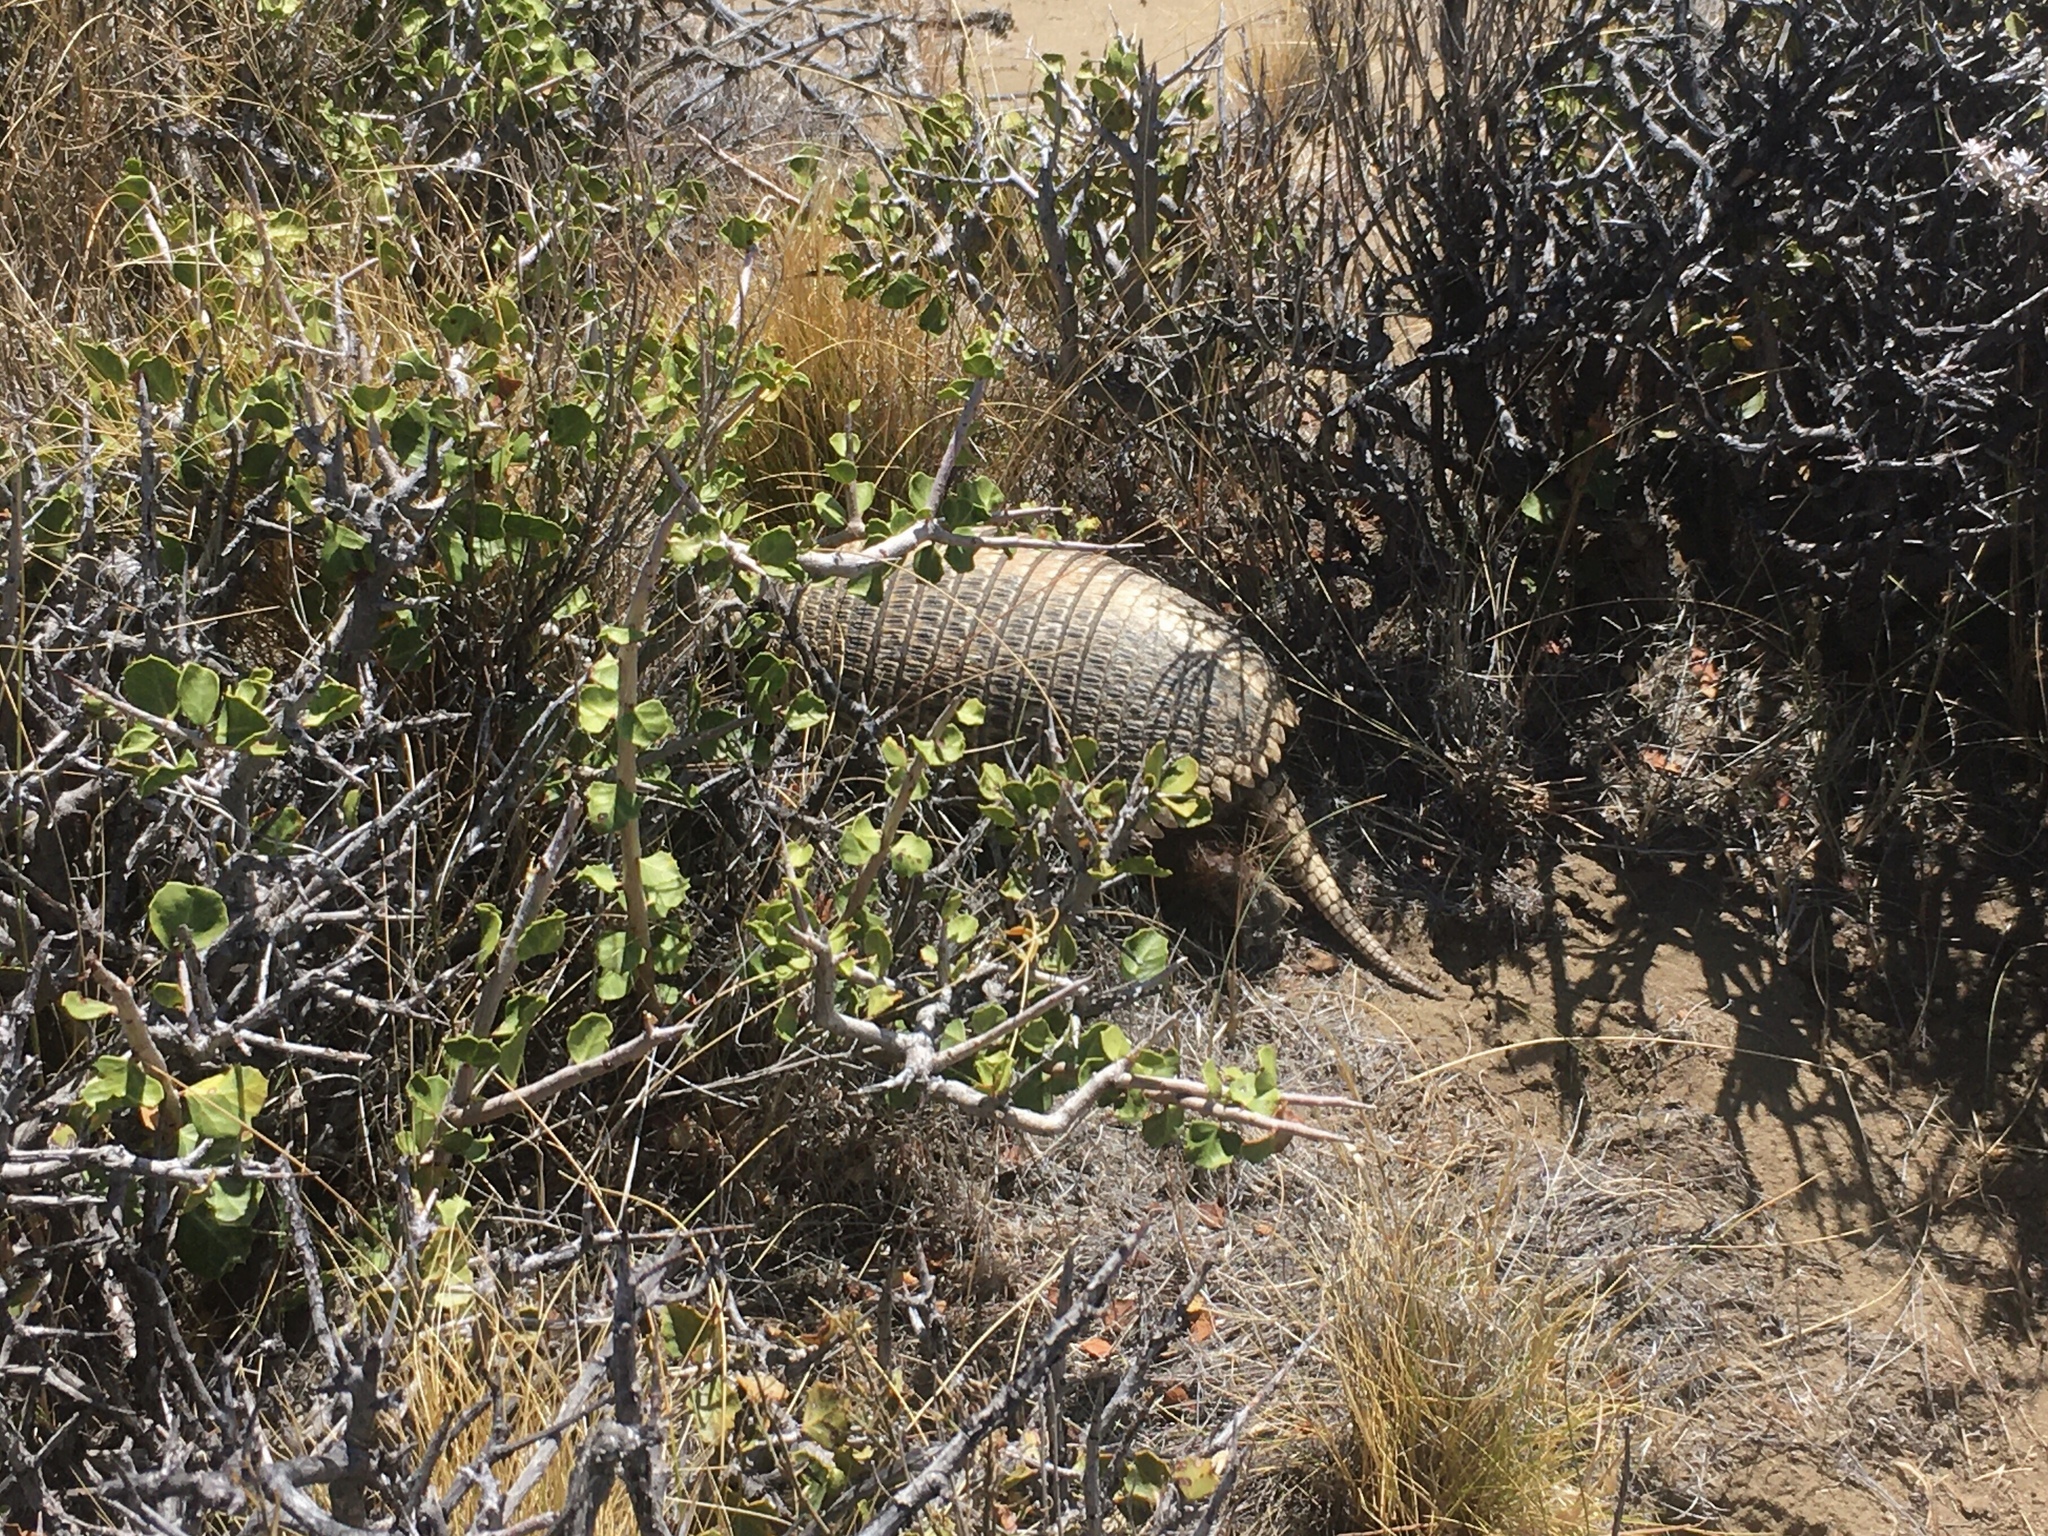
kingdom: Animalia
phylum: Chordata
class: Mammalia
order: Cingulata
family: Dasypodidae
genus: Zaedyus
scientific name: Zaedyus pichiy
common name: Pichi
